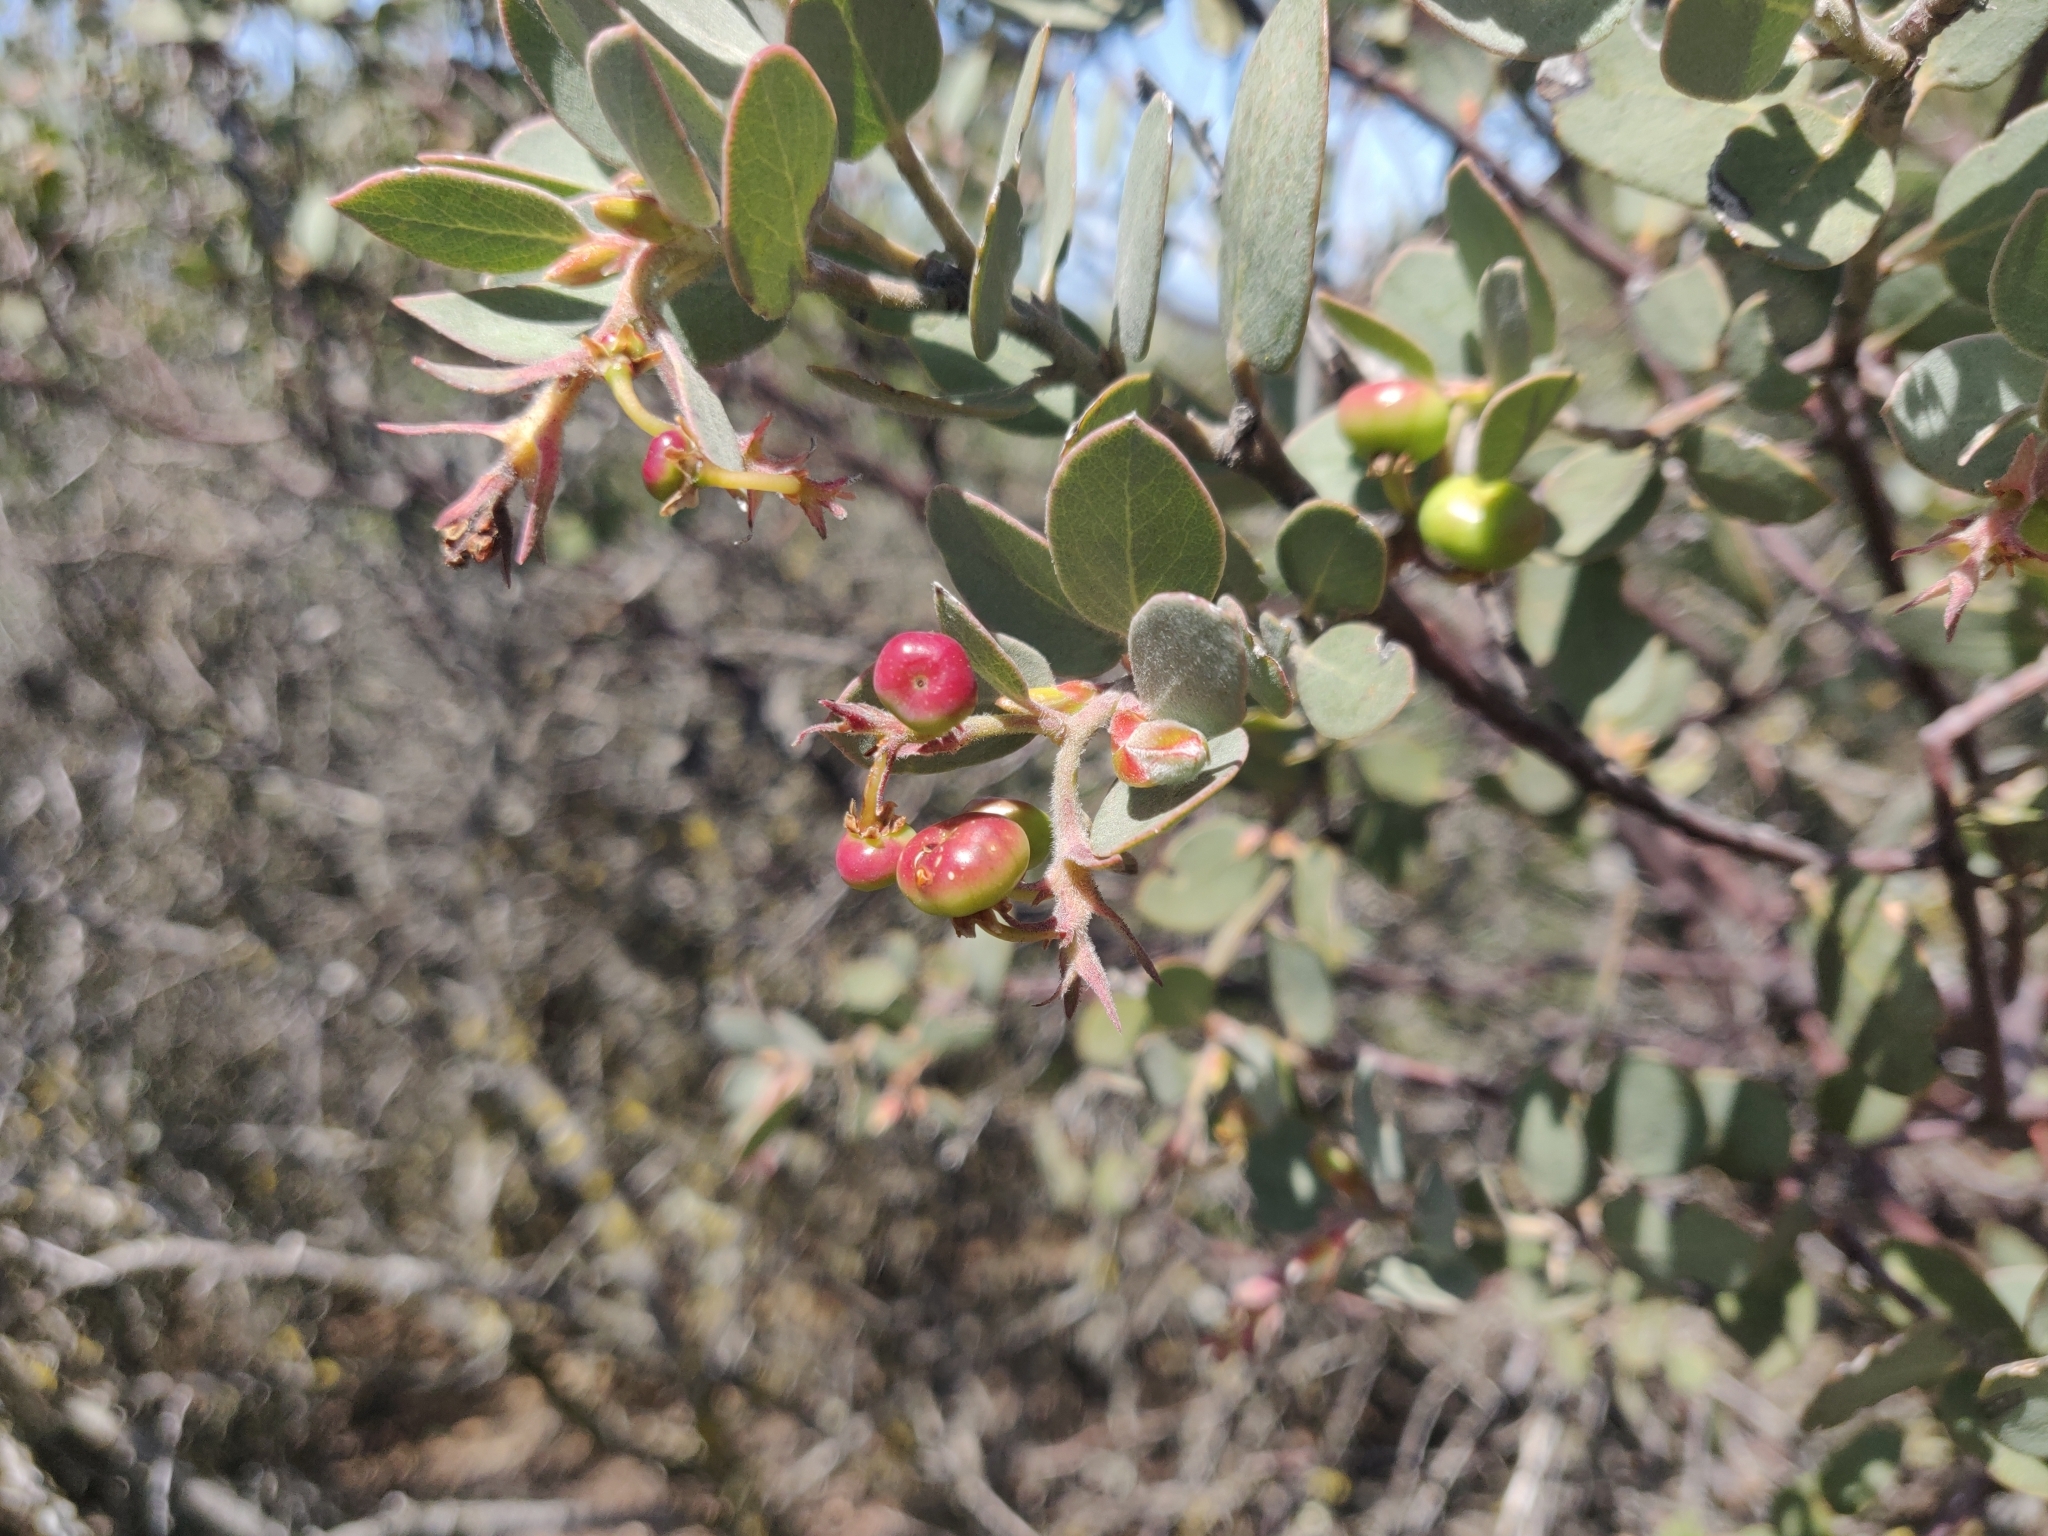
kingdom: Plantae
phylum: Tracheophyta
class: Magnoliopsida
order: Ericales
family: Ericaceae
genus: Arctostaphylos
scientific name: Arctostaphylos obispoensis
